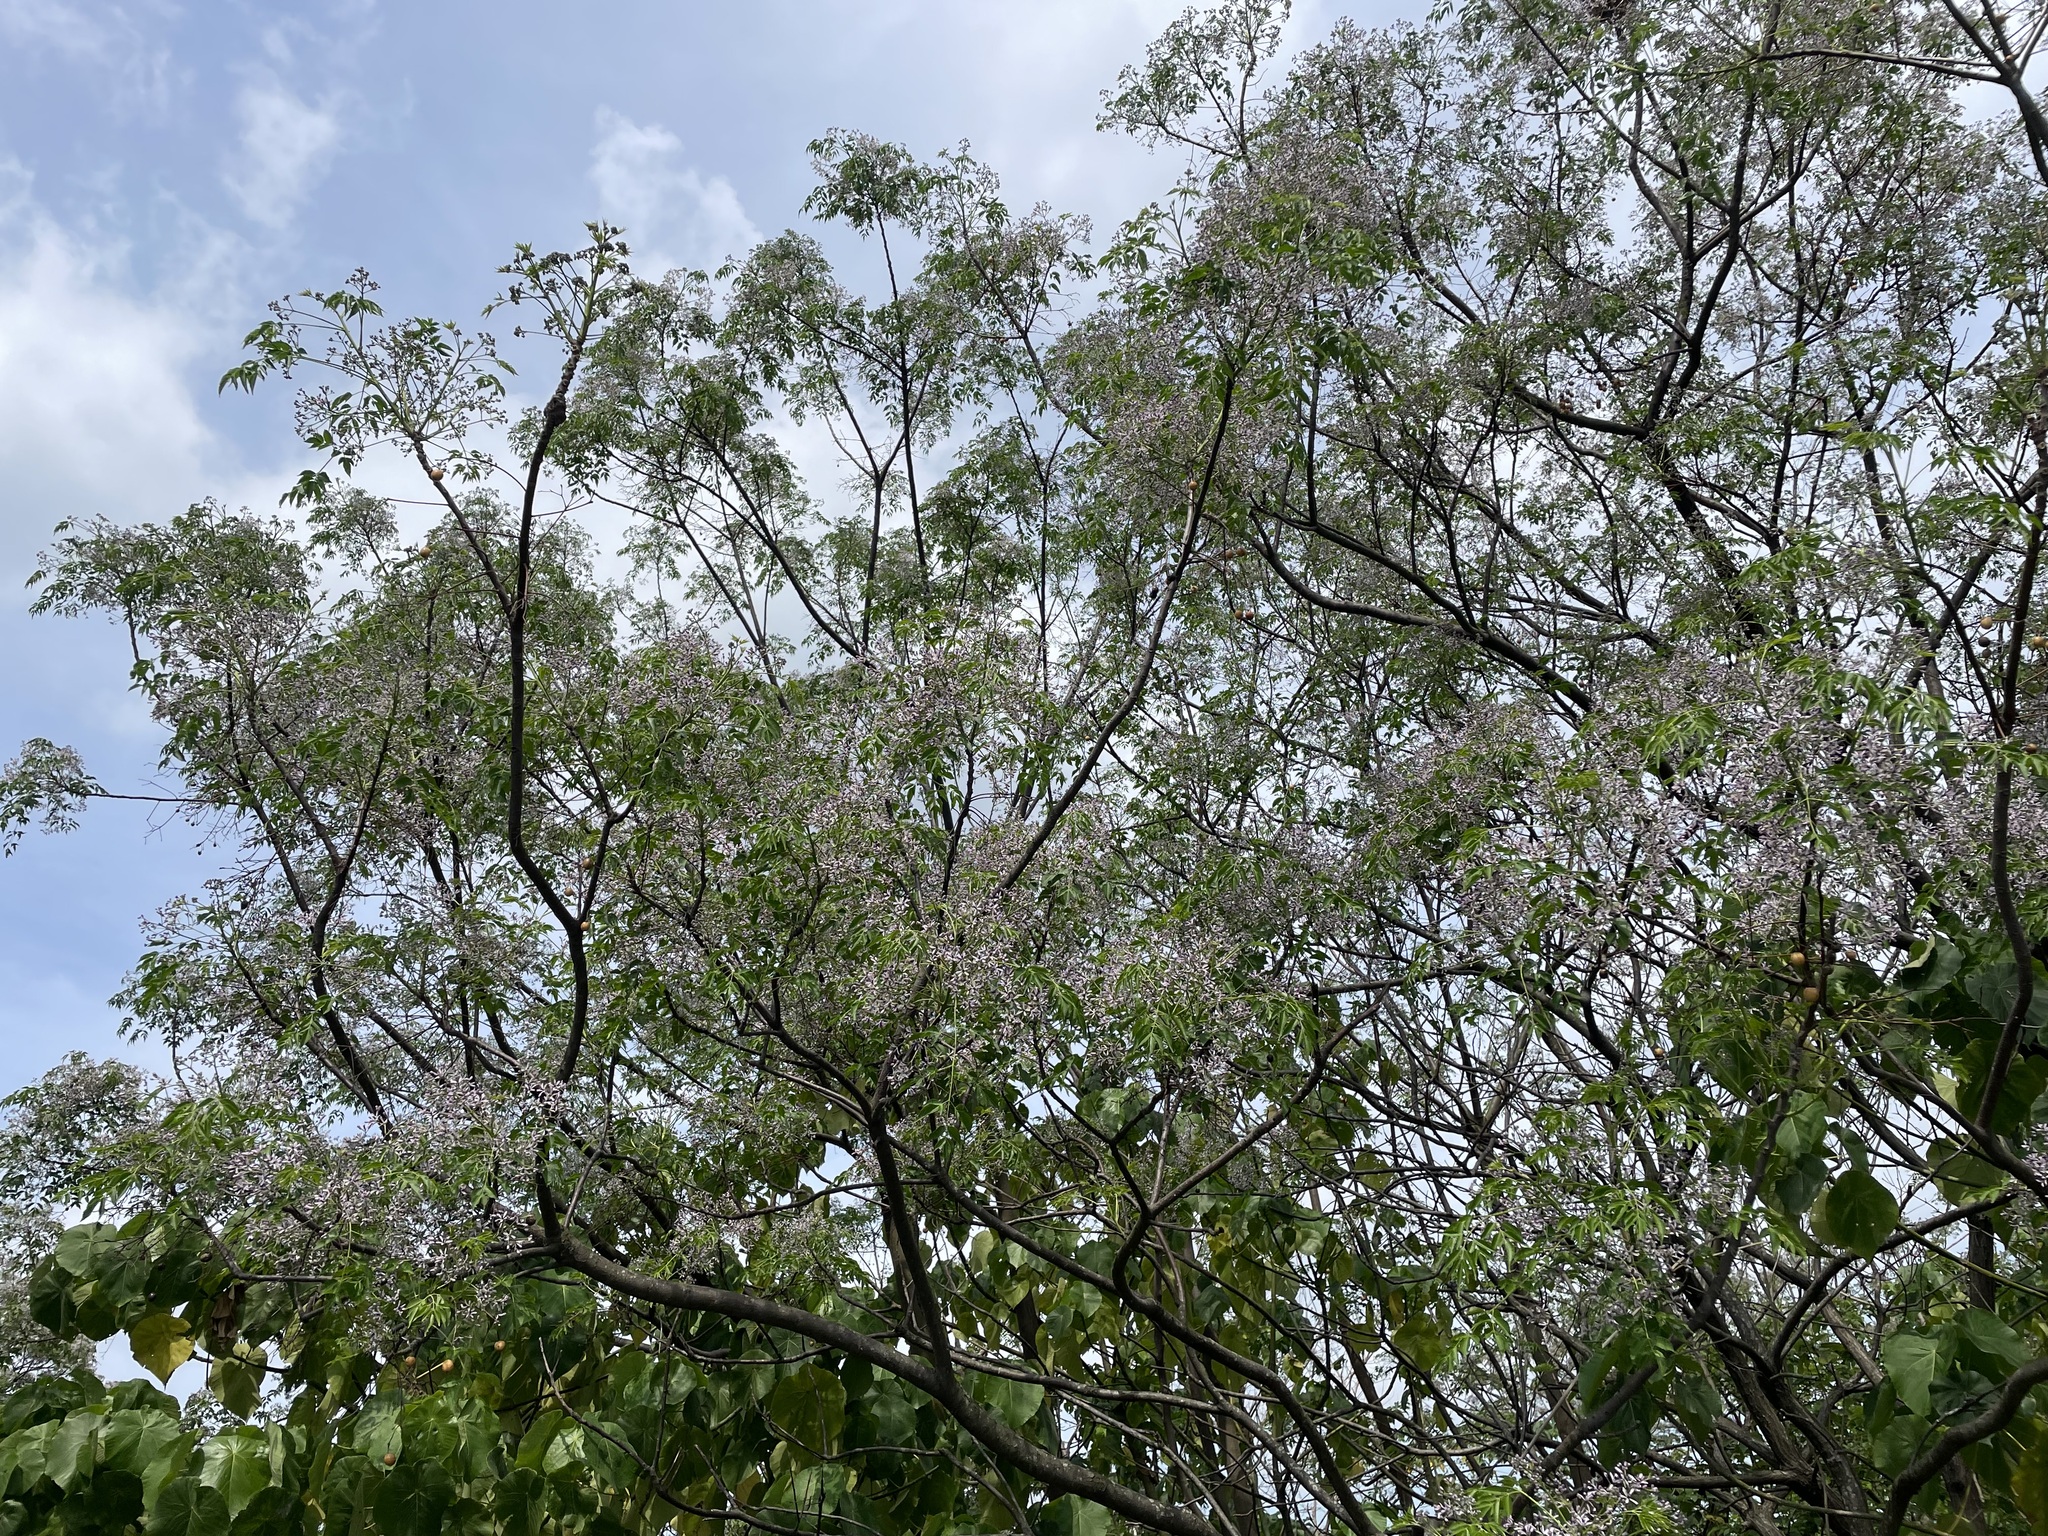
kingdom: Plantae
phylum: Tracheophyta
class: Magnoliopsida
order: Sapindales
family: Meliaceae
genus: Melia
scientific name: Melia azedarach
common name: Chinaberrytree
